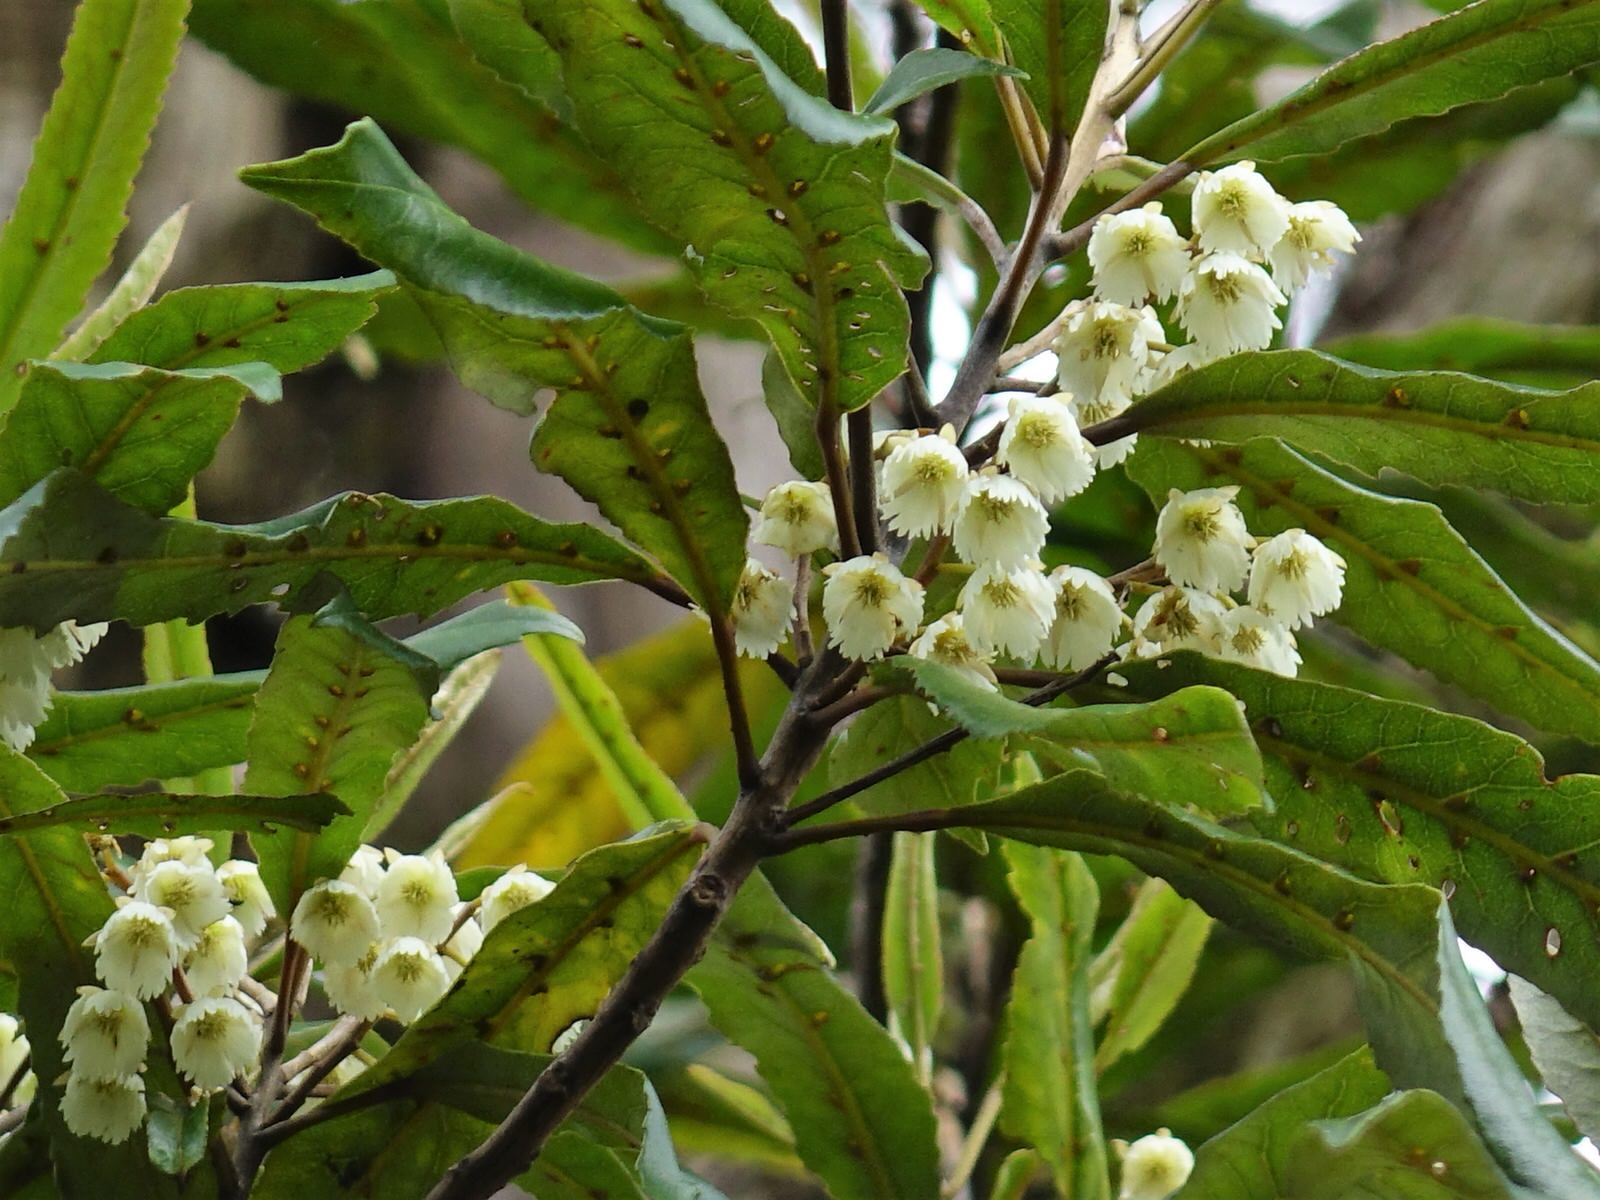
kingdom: Plantae
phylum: Tracheophyta
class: Magnoliopsida
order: Oxalidales
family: Elaeocarpaceae
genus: Elaeocarpus
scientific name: Elaeocarpus dentatus
